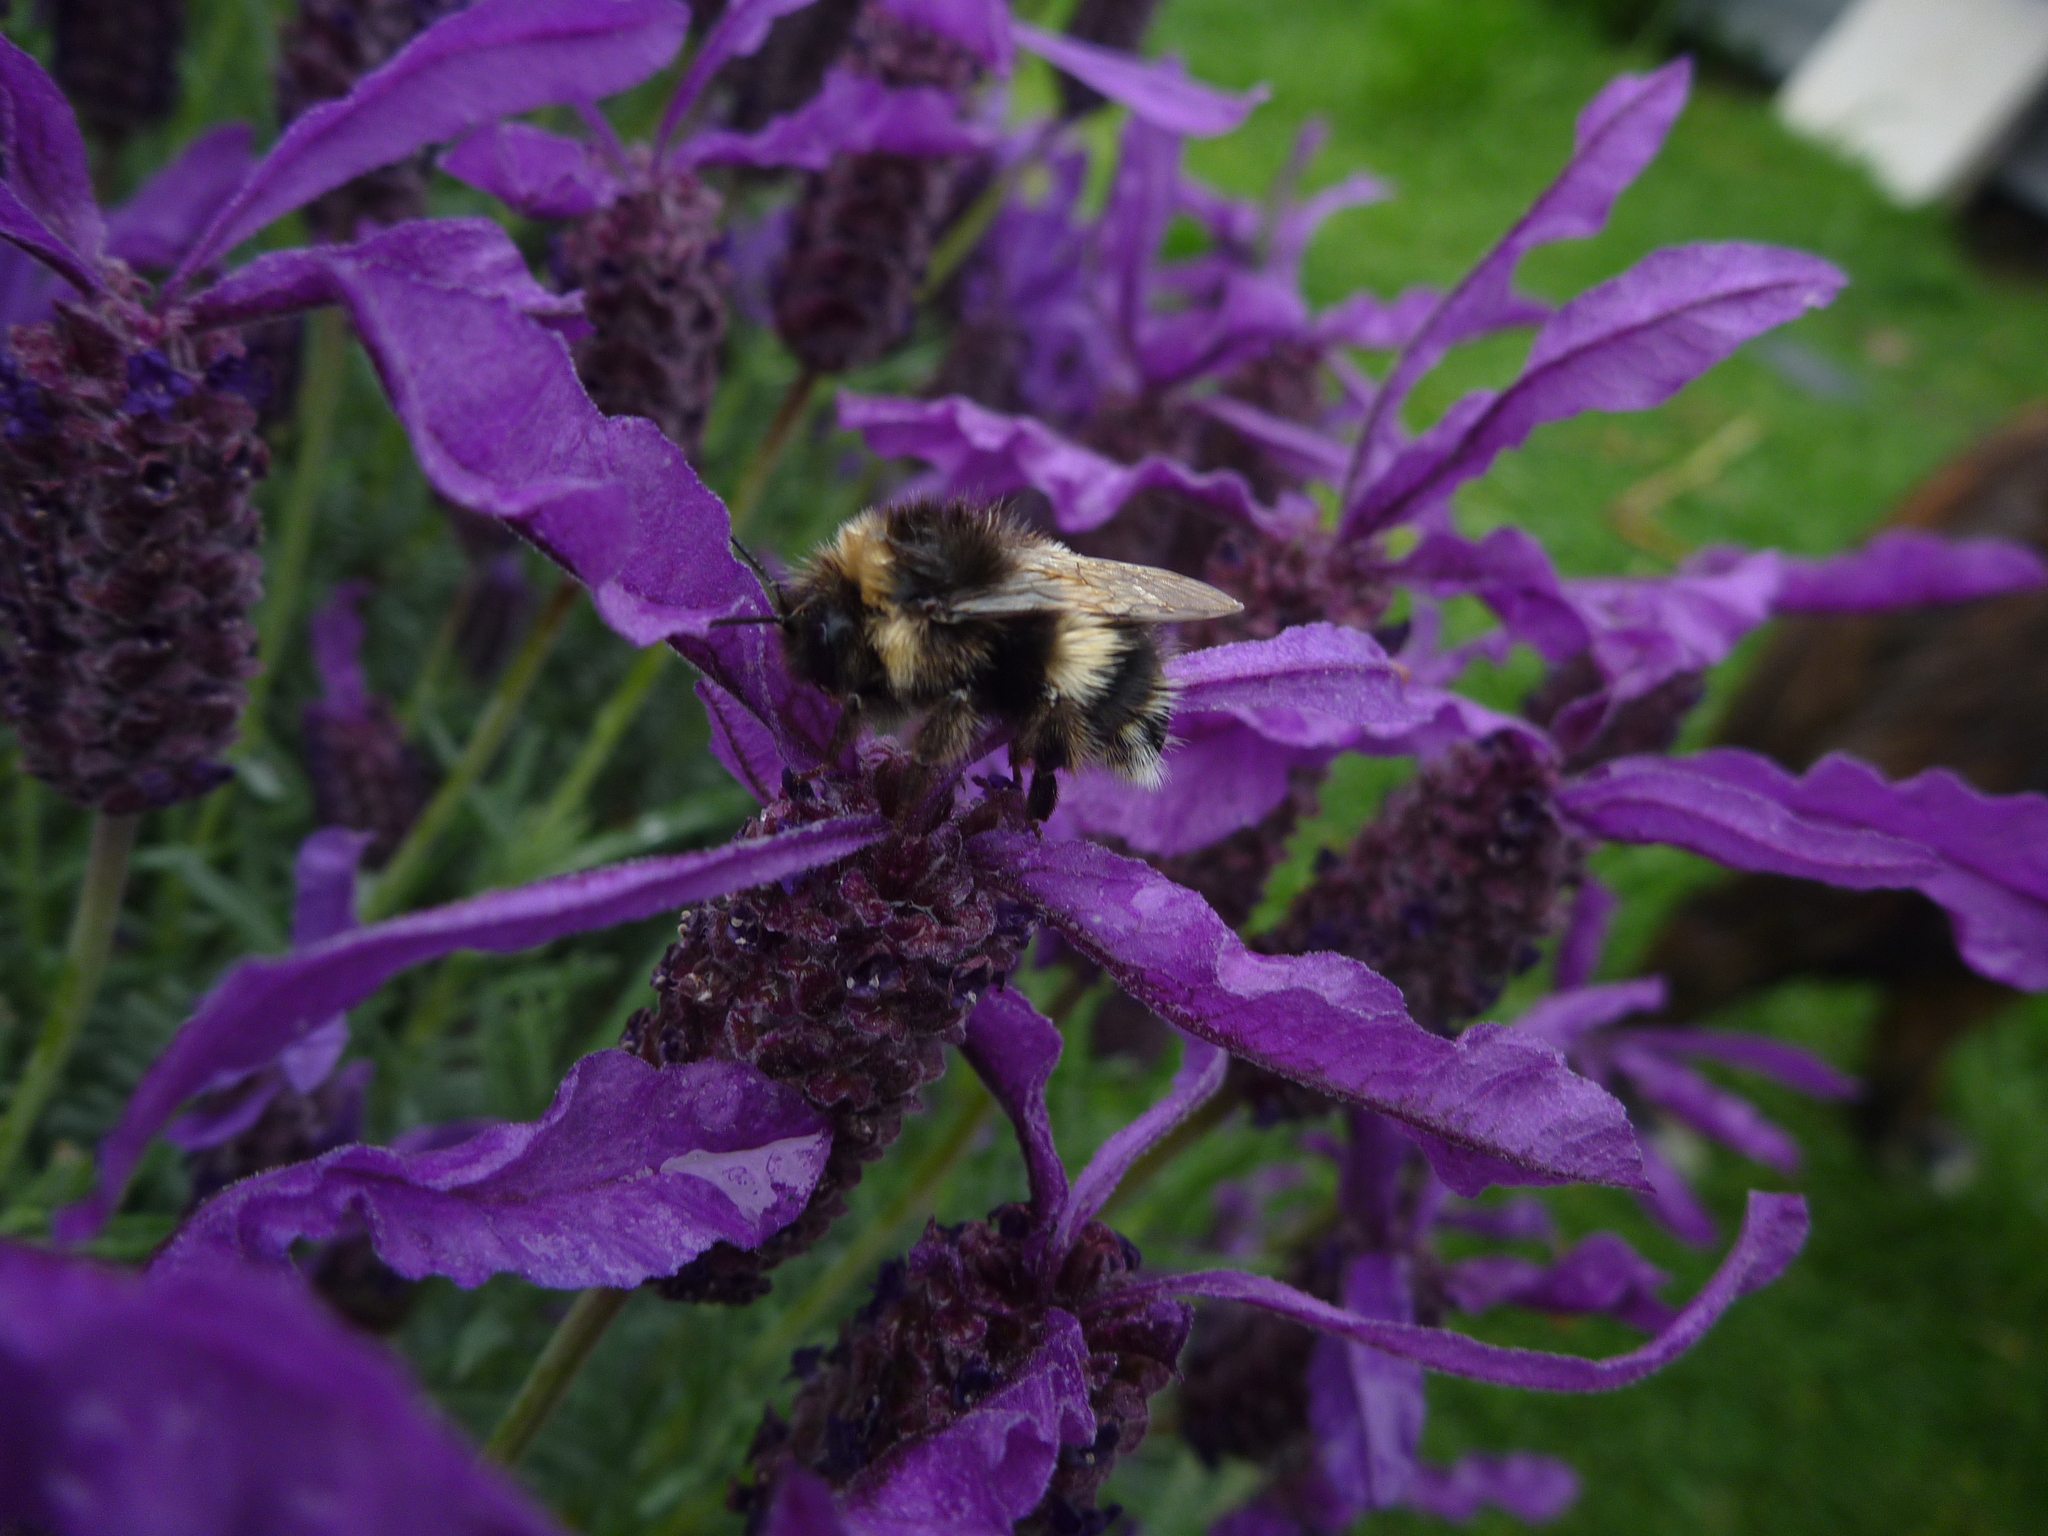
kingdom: Animalia
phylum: Arthropoda
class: Insecta
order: Hymenoptera
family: Apidae
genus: Bombus
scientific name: Bombus terrestris
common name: Buff-tailed bumblebee
